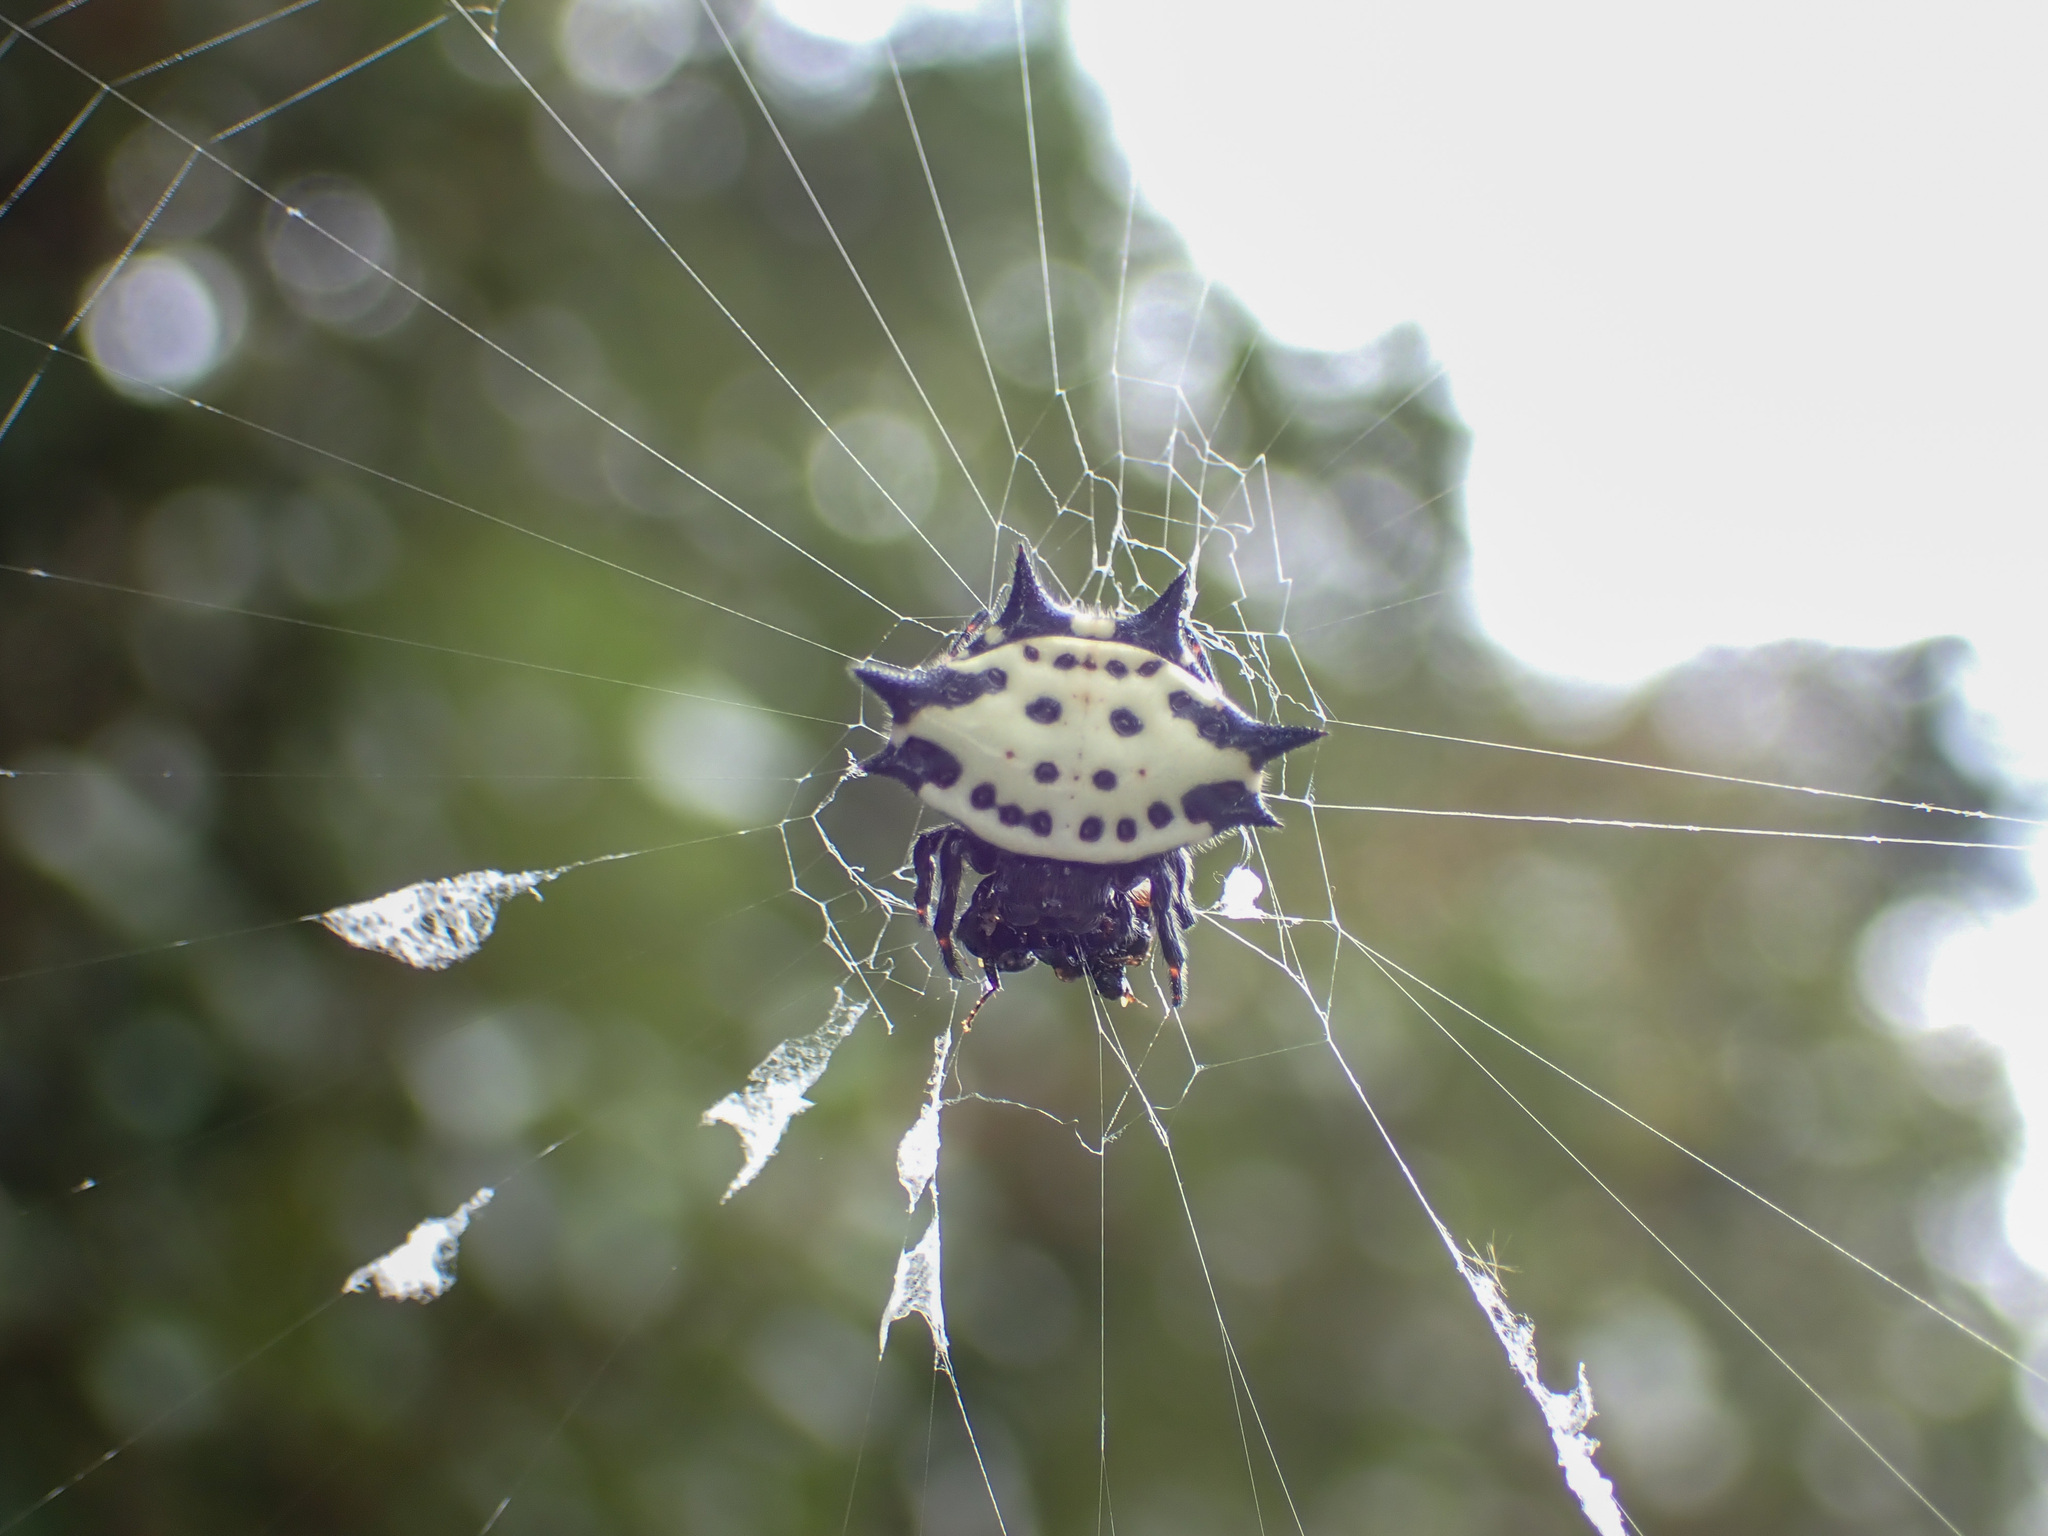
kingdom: Animalia
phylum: Arthropoda
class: Arachnida
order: Araneae
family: Araneidae
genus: Gasteracantha
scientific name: Gasteracantha cancriformis
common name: Orb weavers
